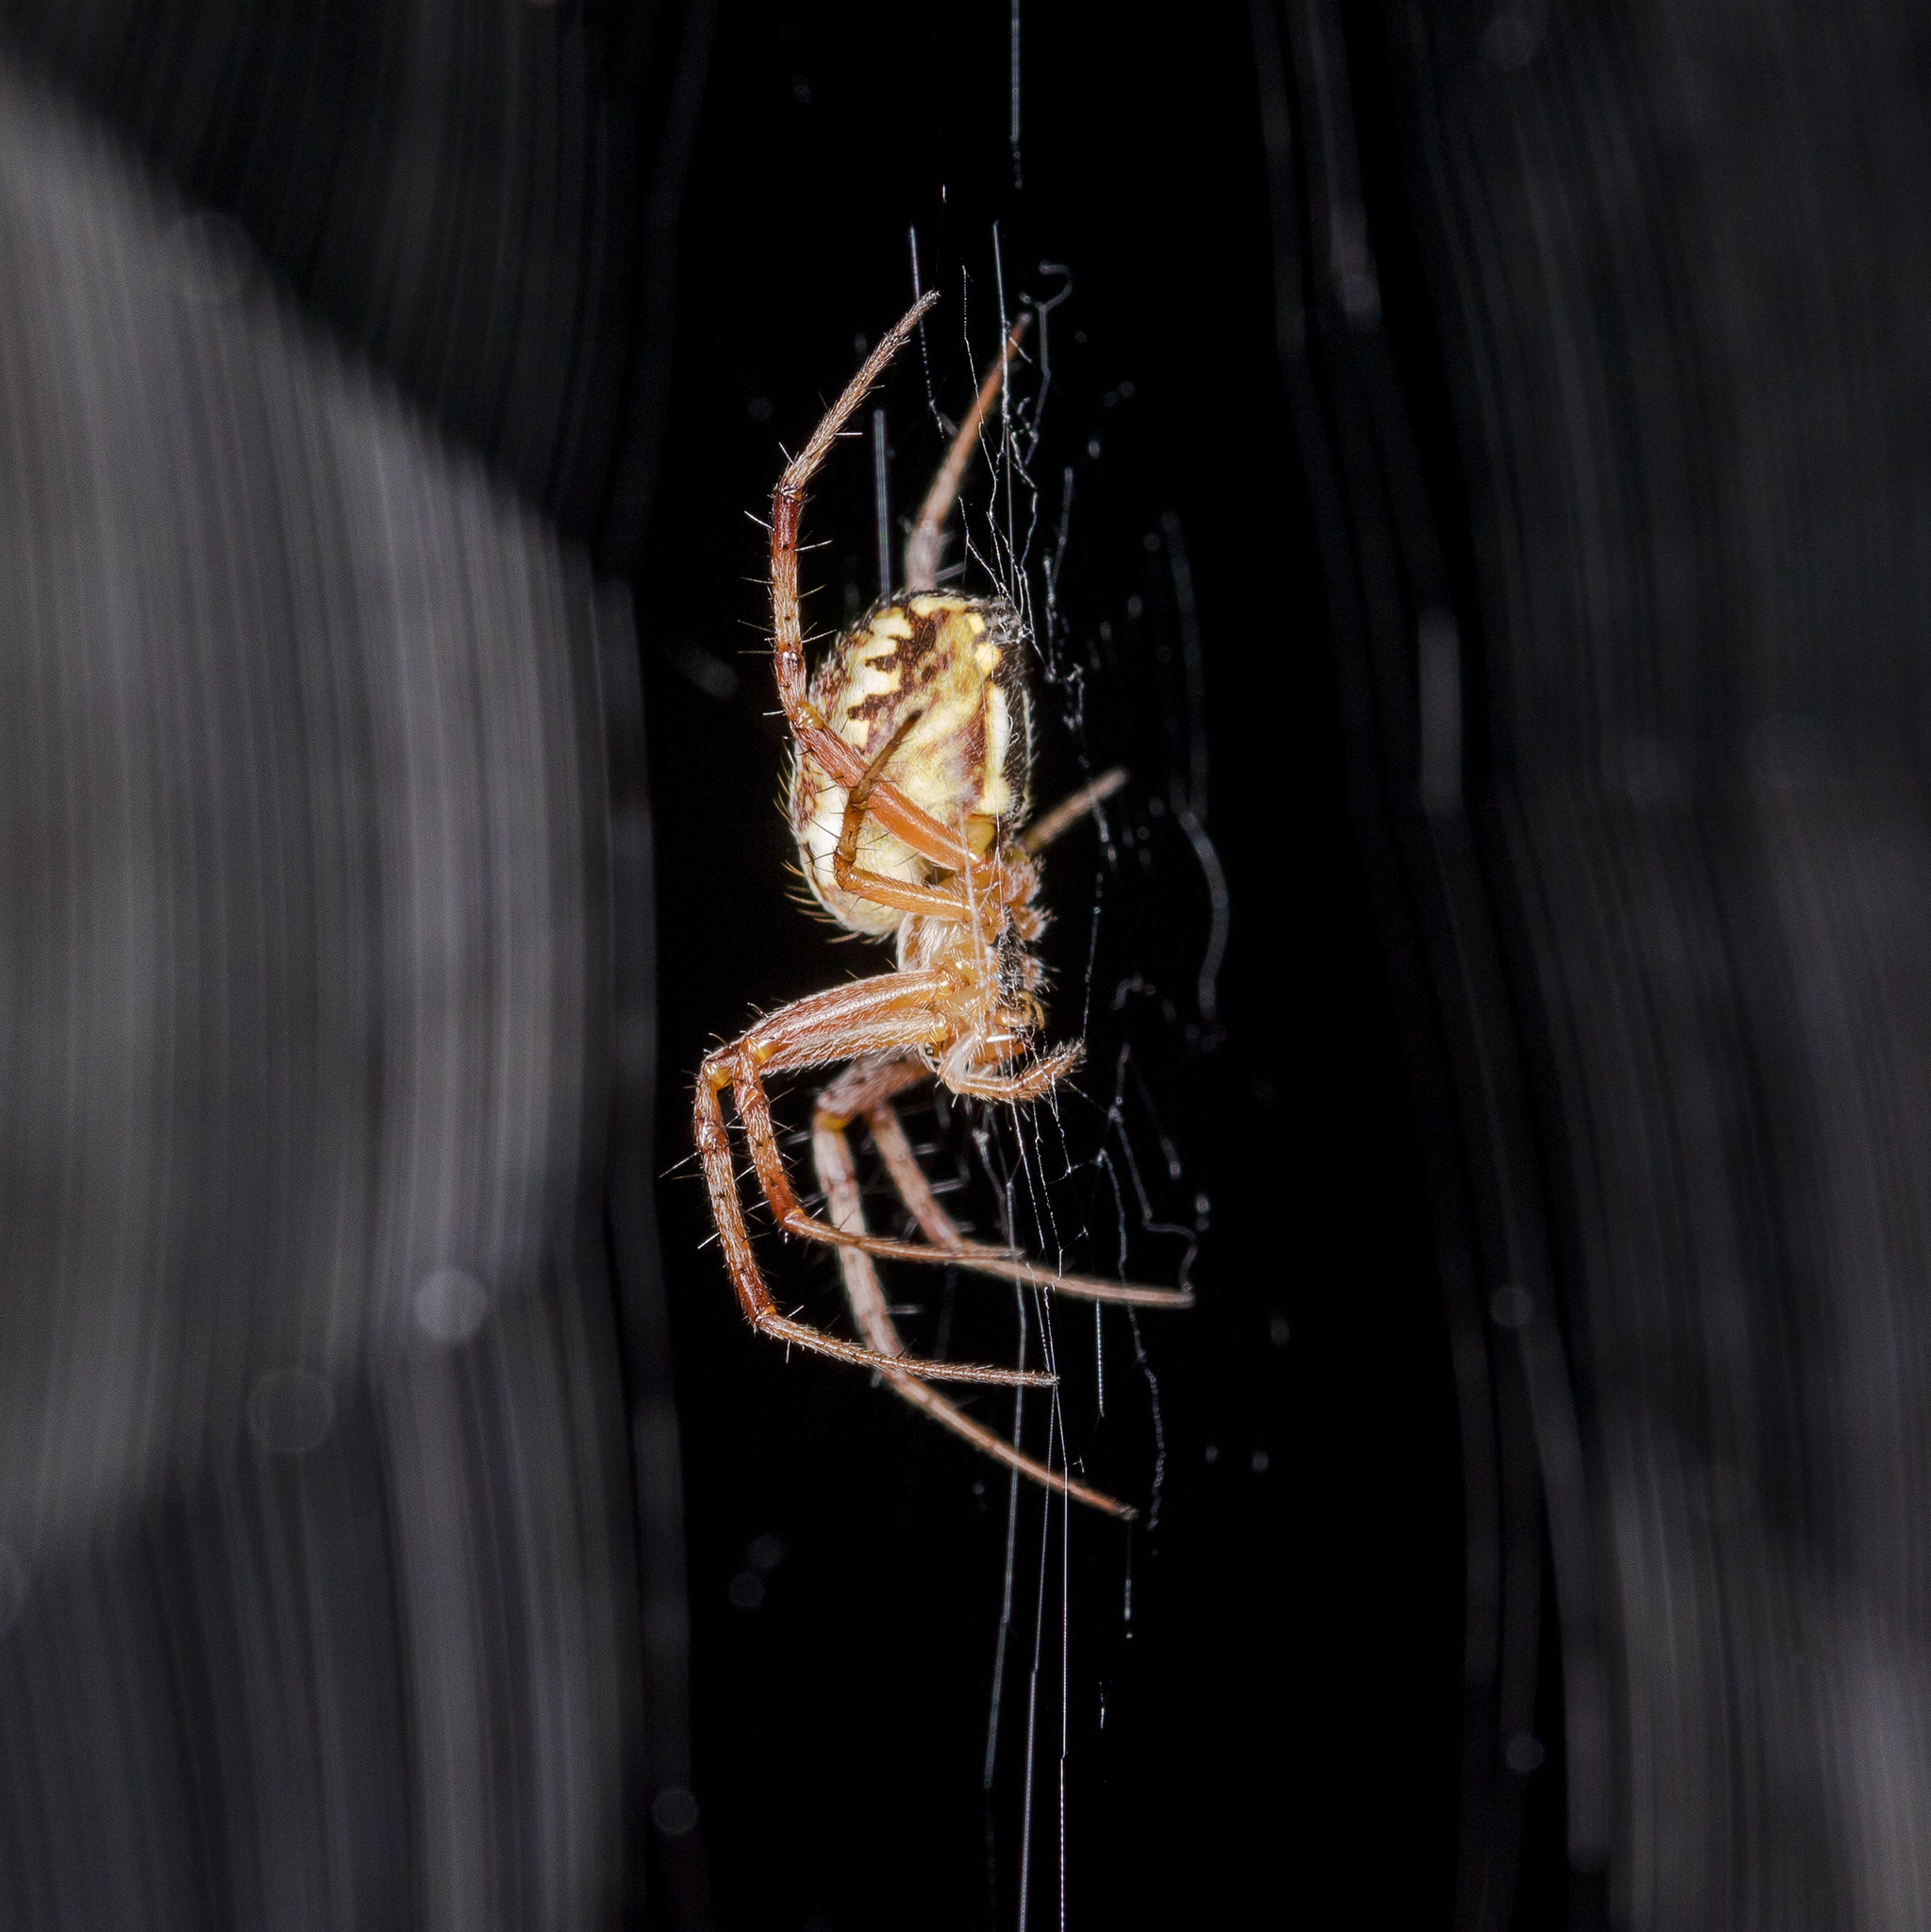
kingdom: Animalia
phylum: Arthropoda
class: Arachnida
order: Araneae
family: Araneidae
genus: Neoscona
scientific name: Neoscona adianta
